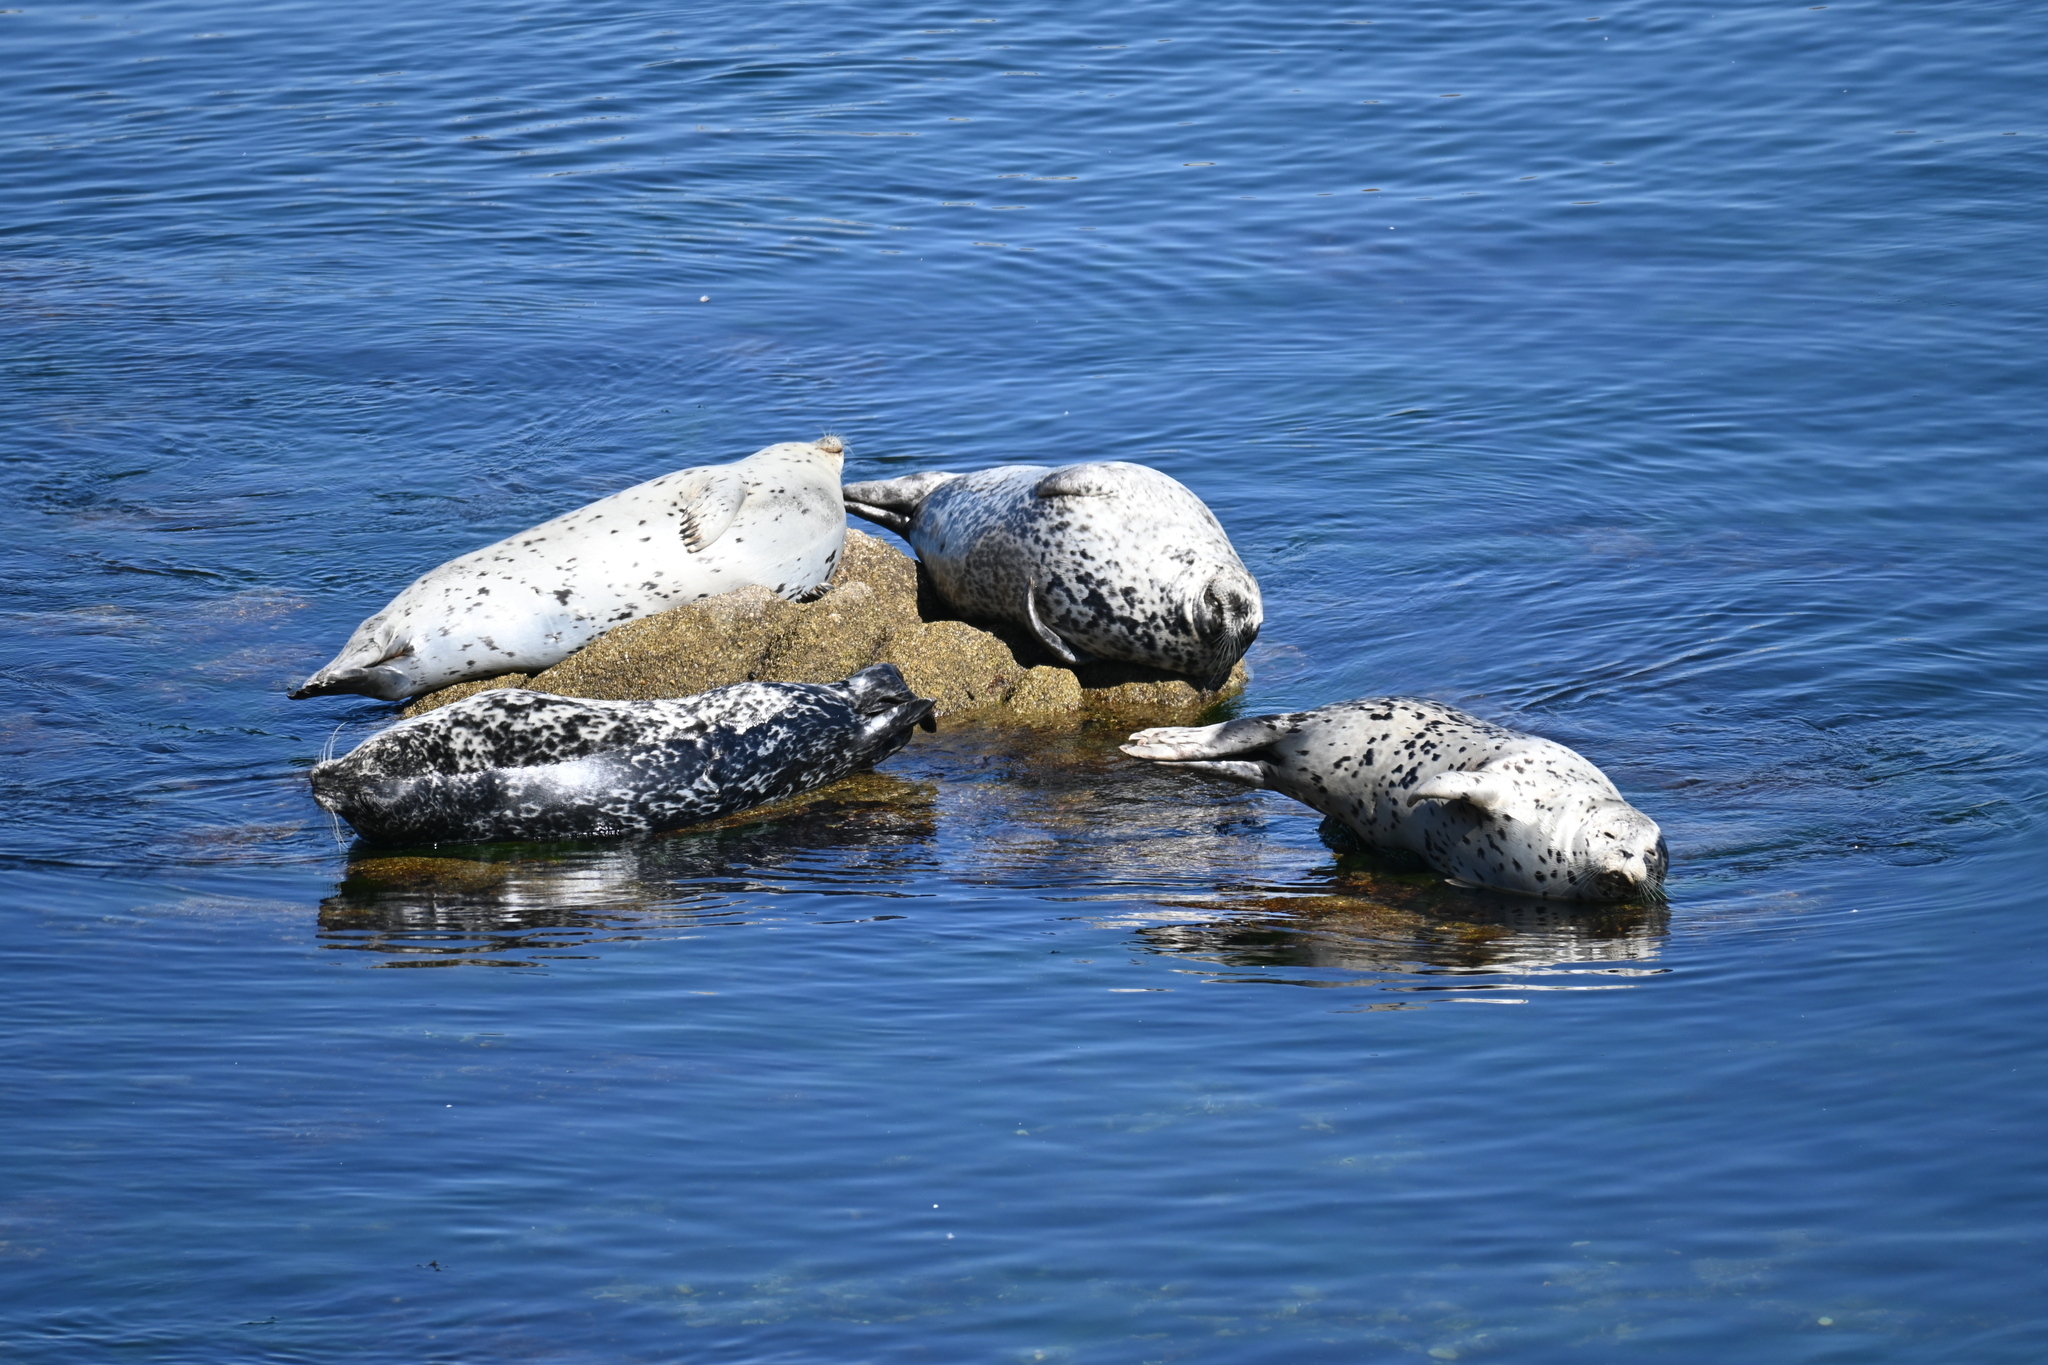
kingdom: Animalia
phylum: Chordata
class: Mammalia
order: Carnivora
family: Phocidae
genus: Phoca
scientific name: Phoca vitulina
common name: Harbor seal
